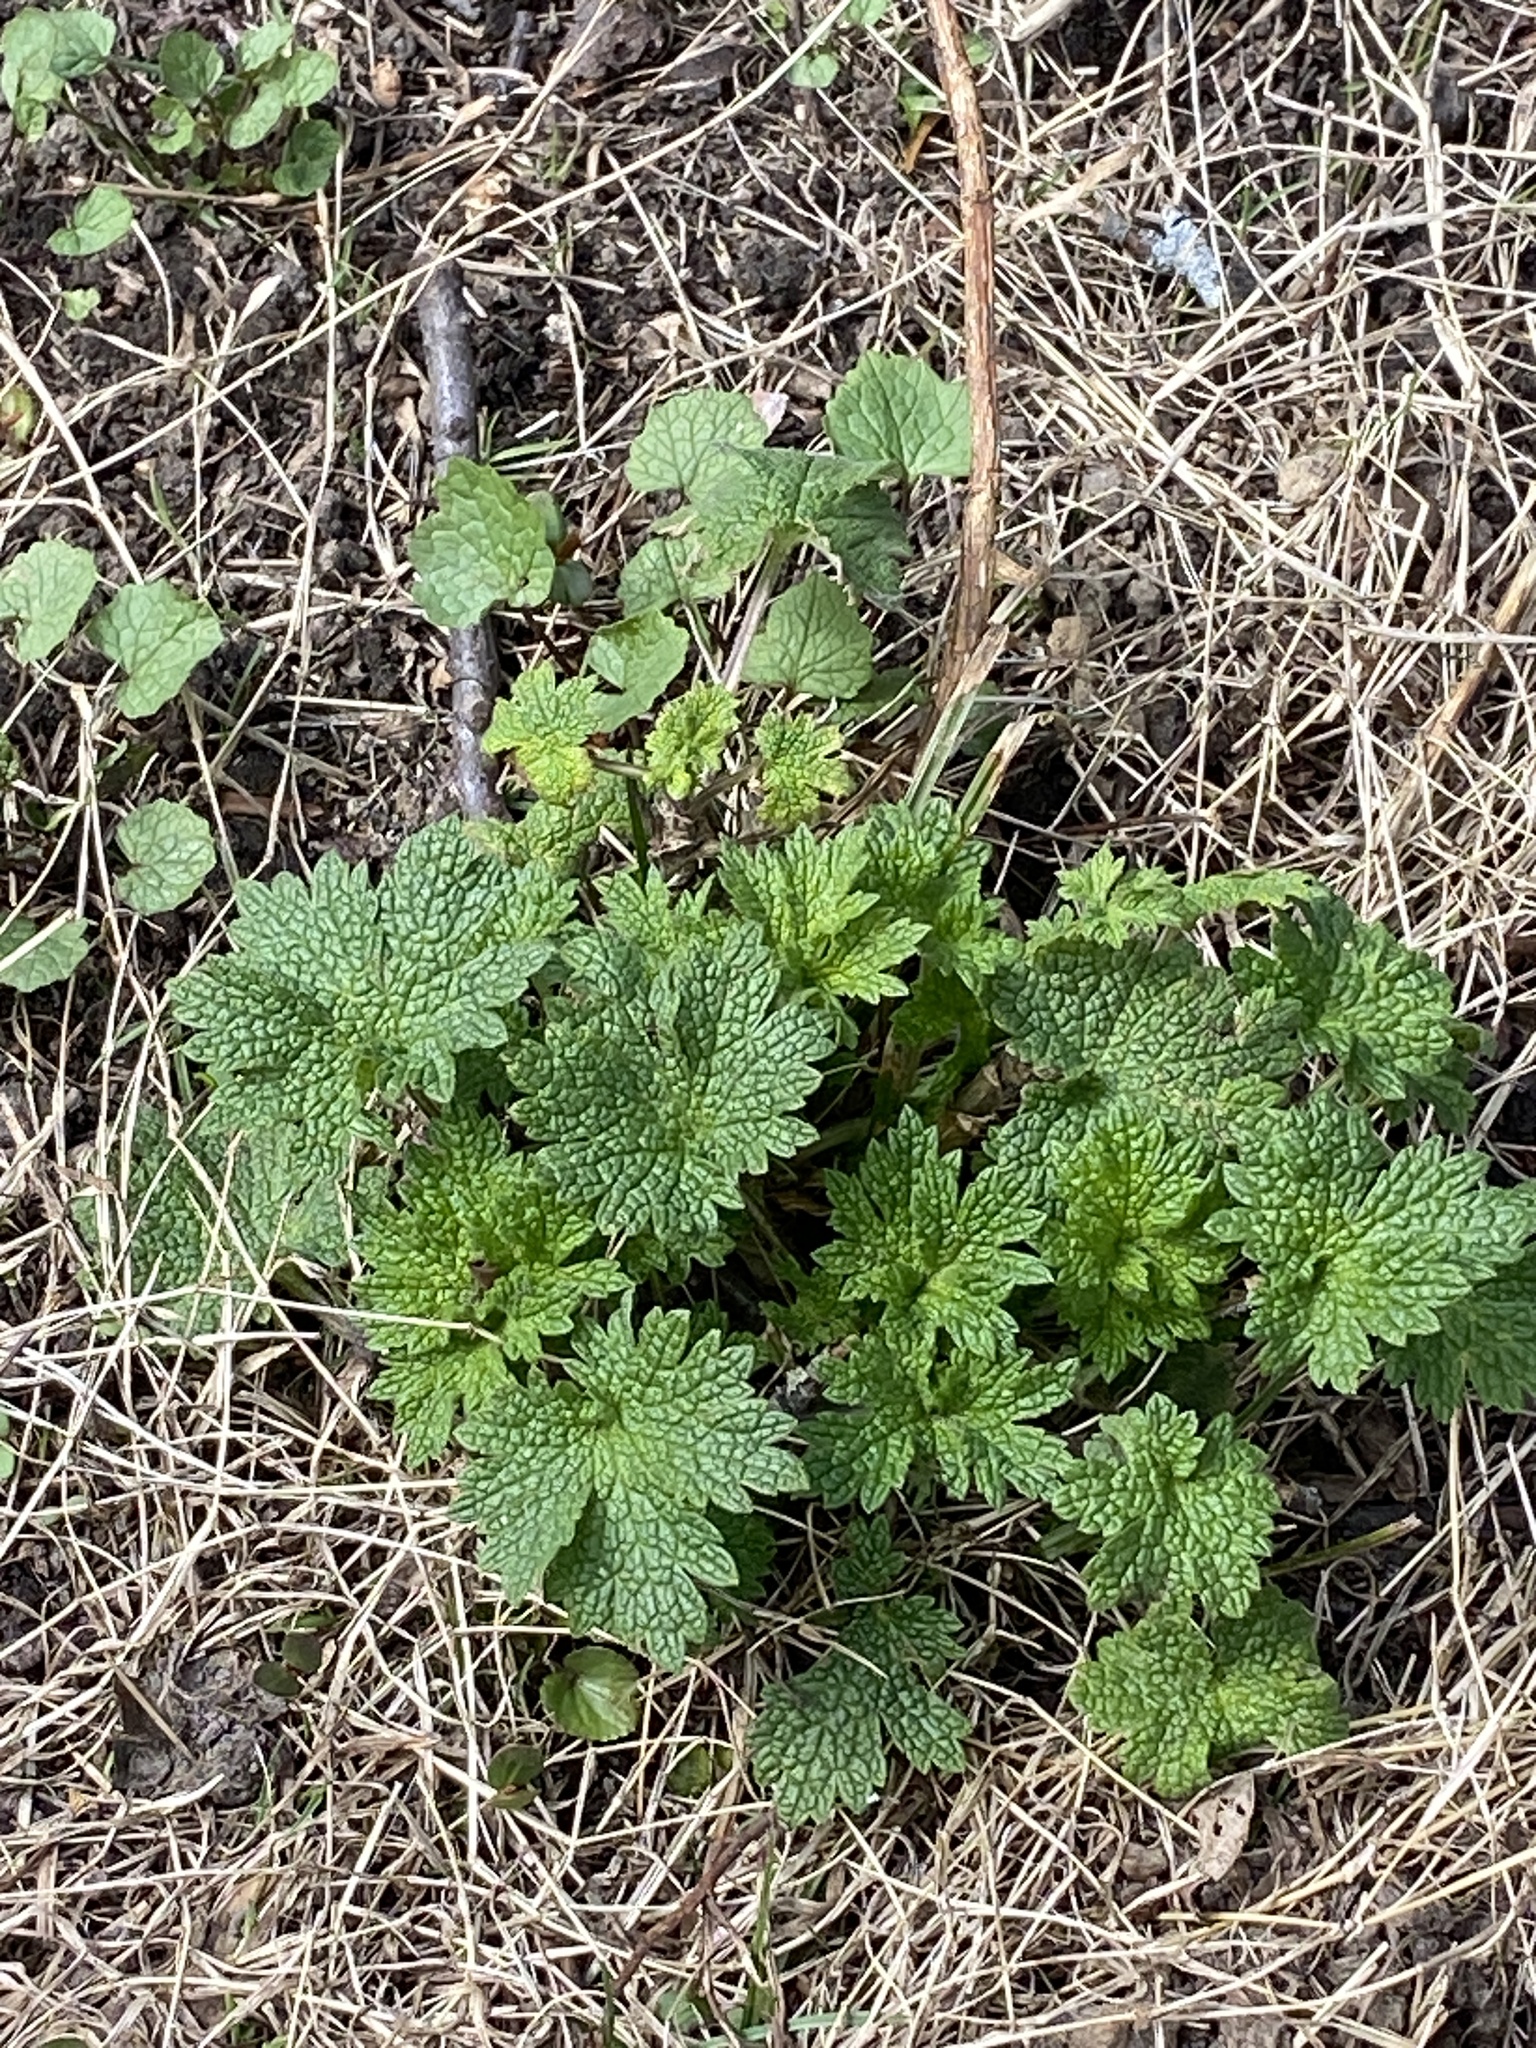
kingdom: Plantae
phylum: Tracheophyta
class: Magnoliopsida
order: Lamiales
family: Lamiaceae
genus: Leonurus
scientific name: Leonurus cardiaca
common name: Motherwort
